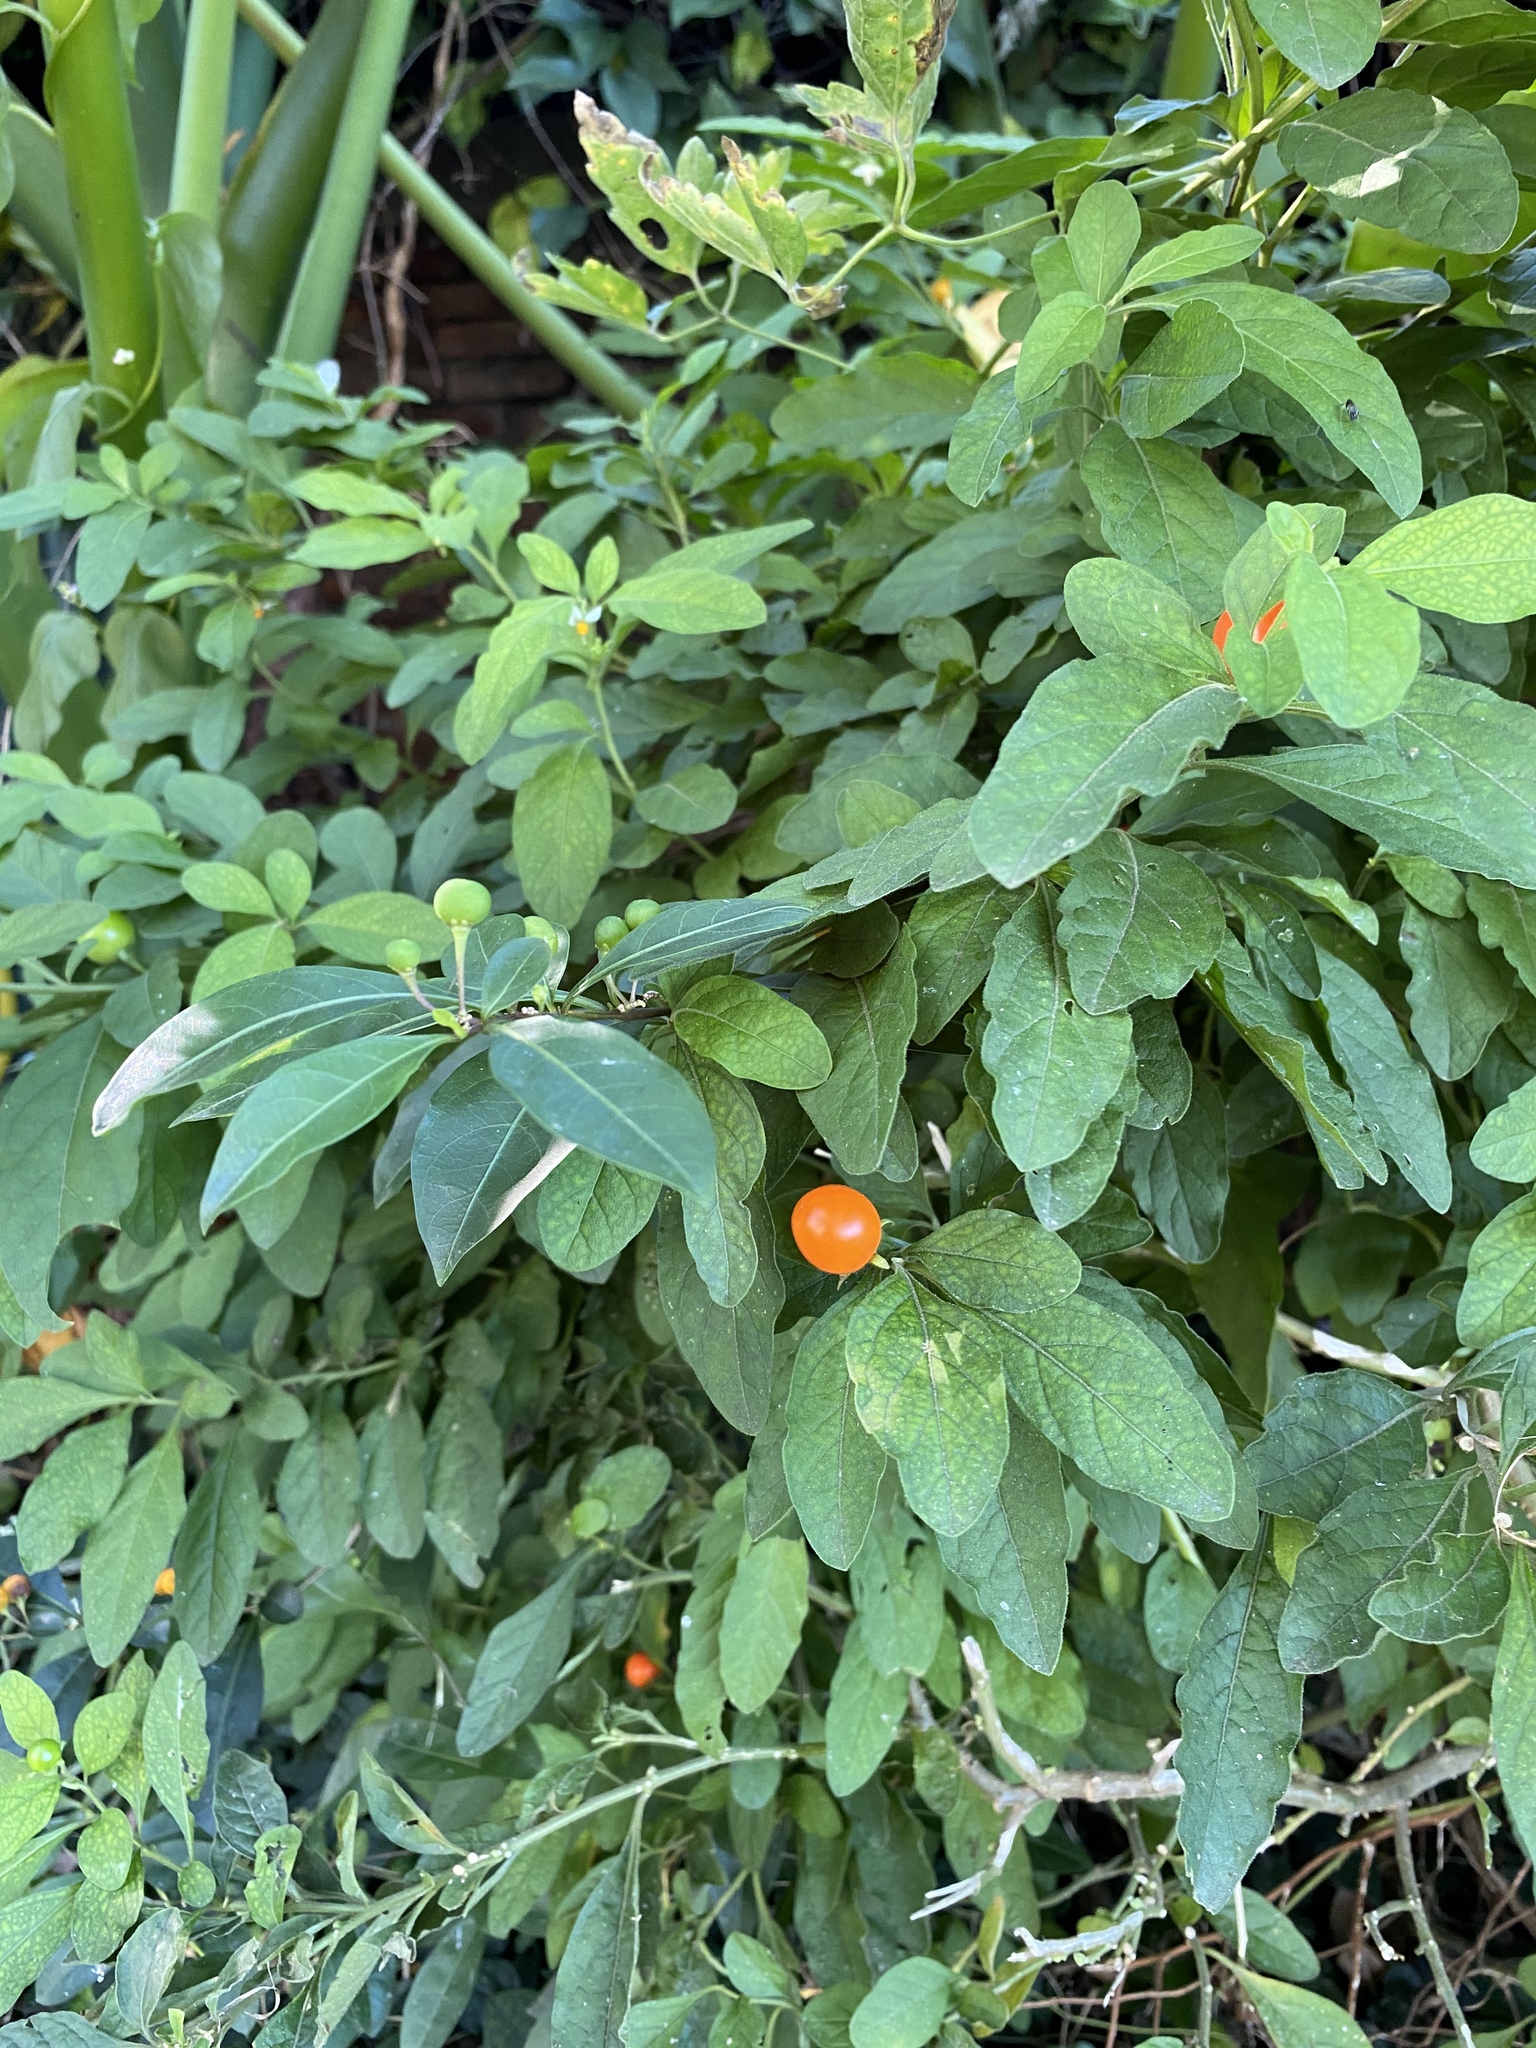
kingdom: Plantae
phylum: Tracheophyta
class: Magnoliopsida
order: Solanales
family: Solanaceae
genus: Solanum
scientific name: Solanum pseudocapsicum
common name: Jerusalem cherry
